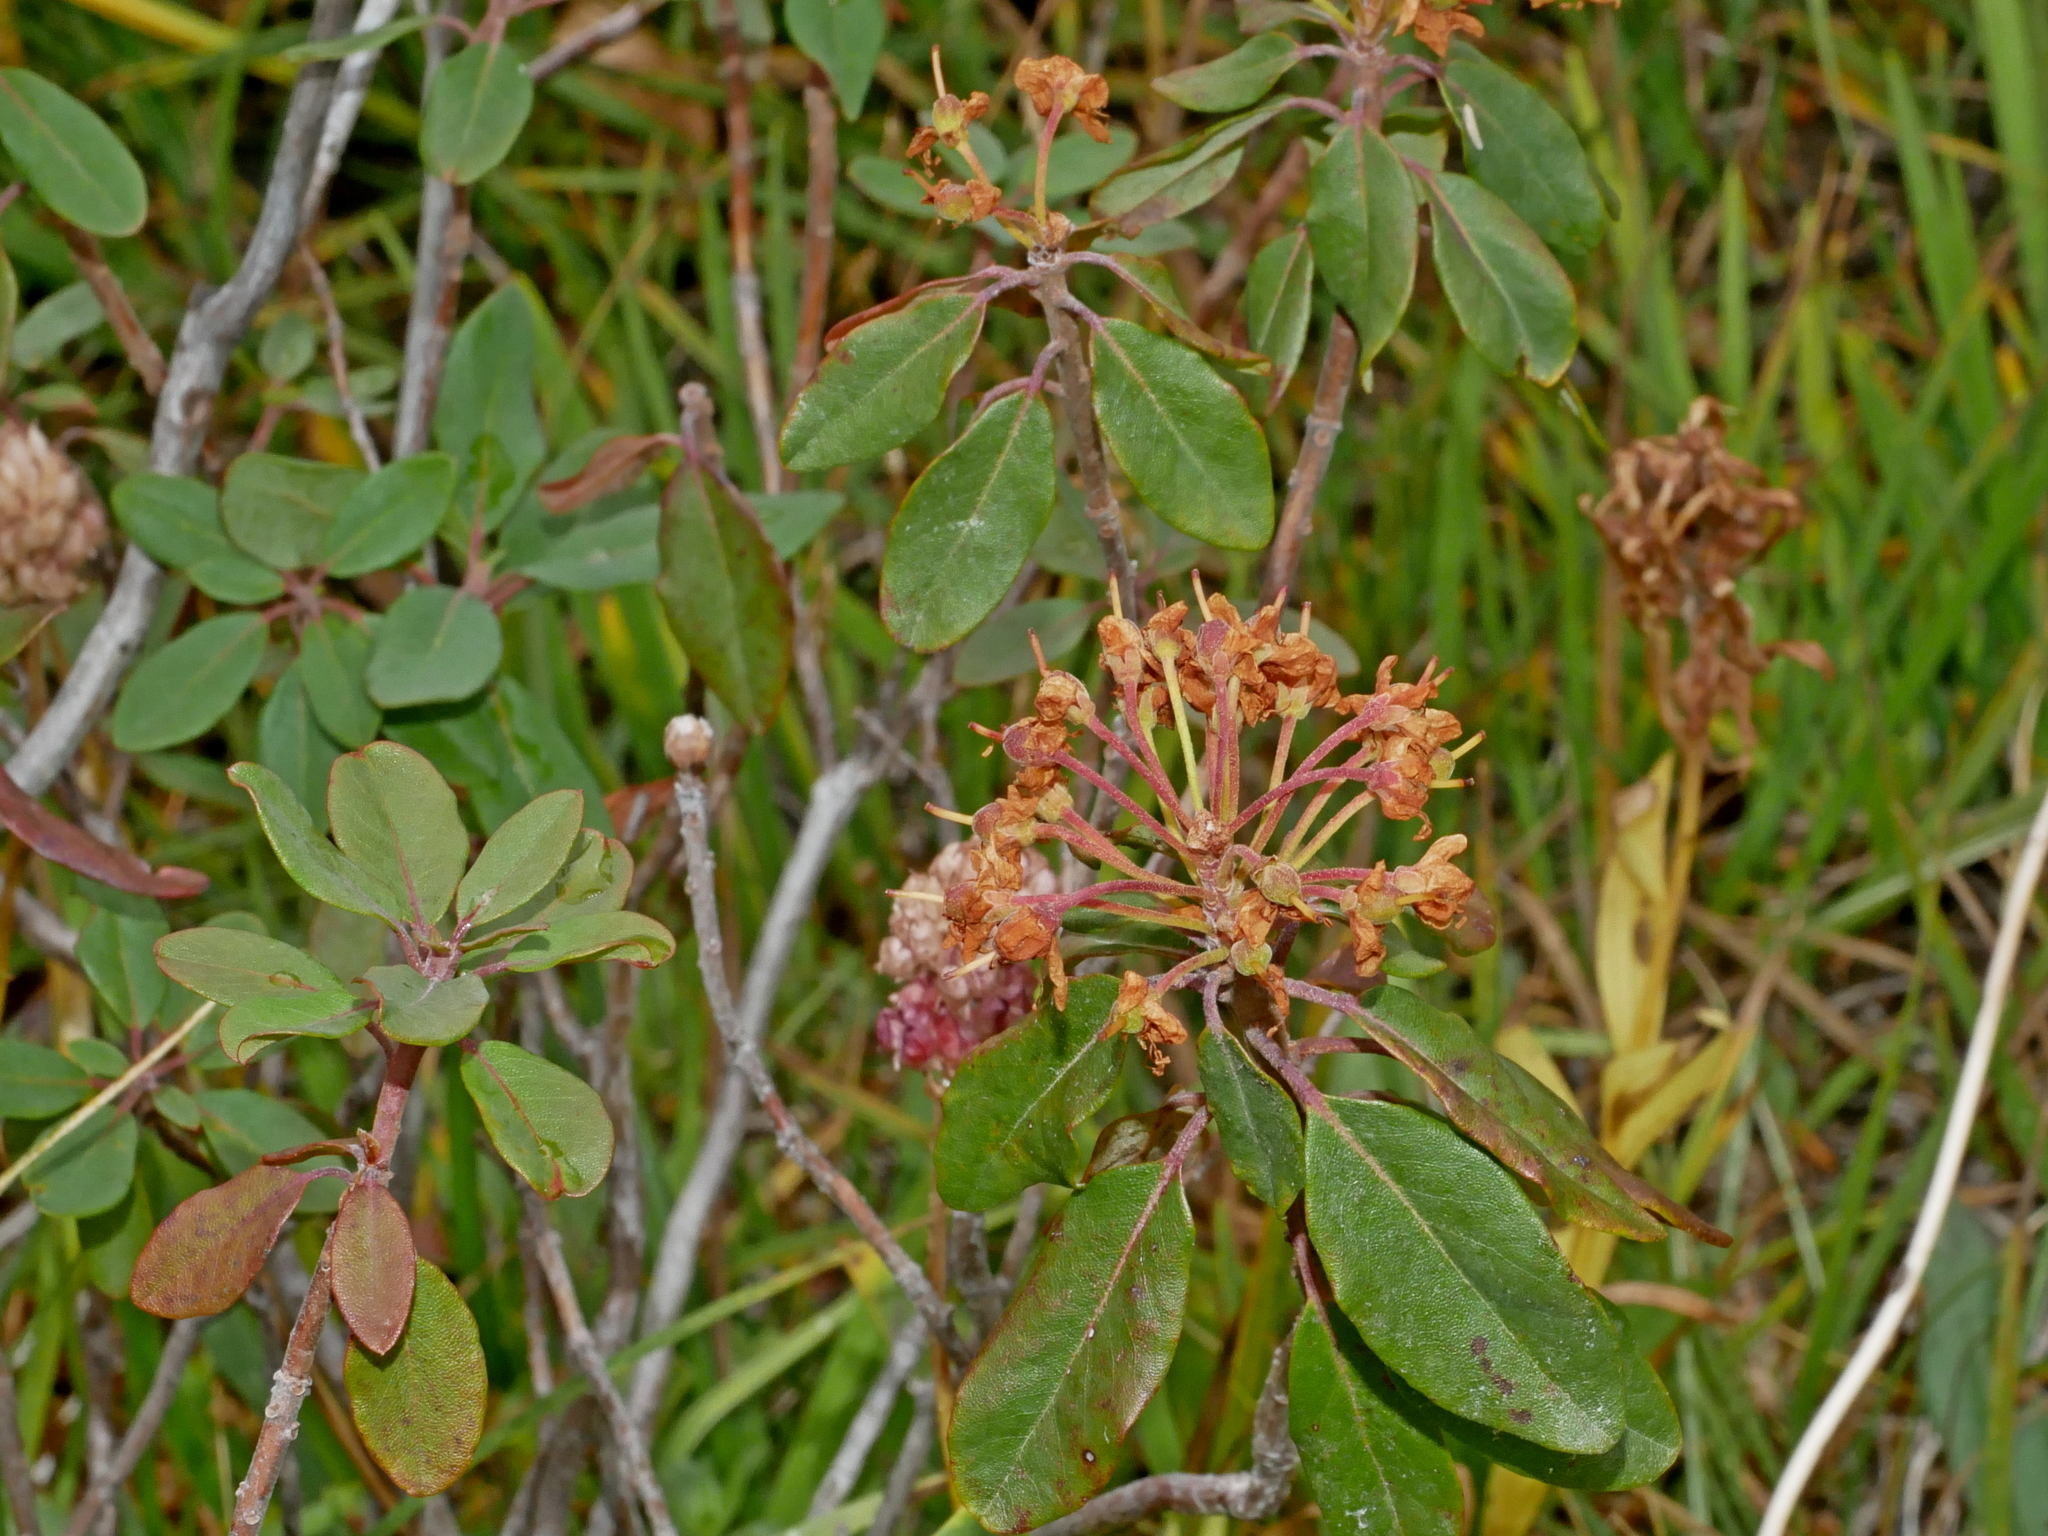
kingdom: Plantae
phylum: Tracheophyta
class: Magnoliopsida
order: Ericales
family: Ericaceae
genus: Rhododendron
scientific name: Rhododendron columbianum
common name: Western labrador tea
